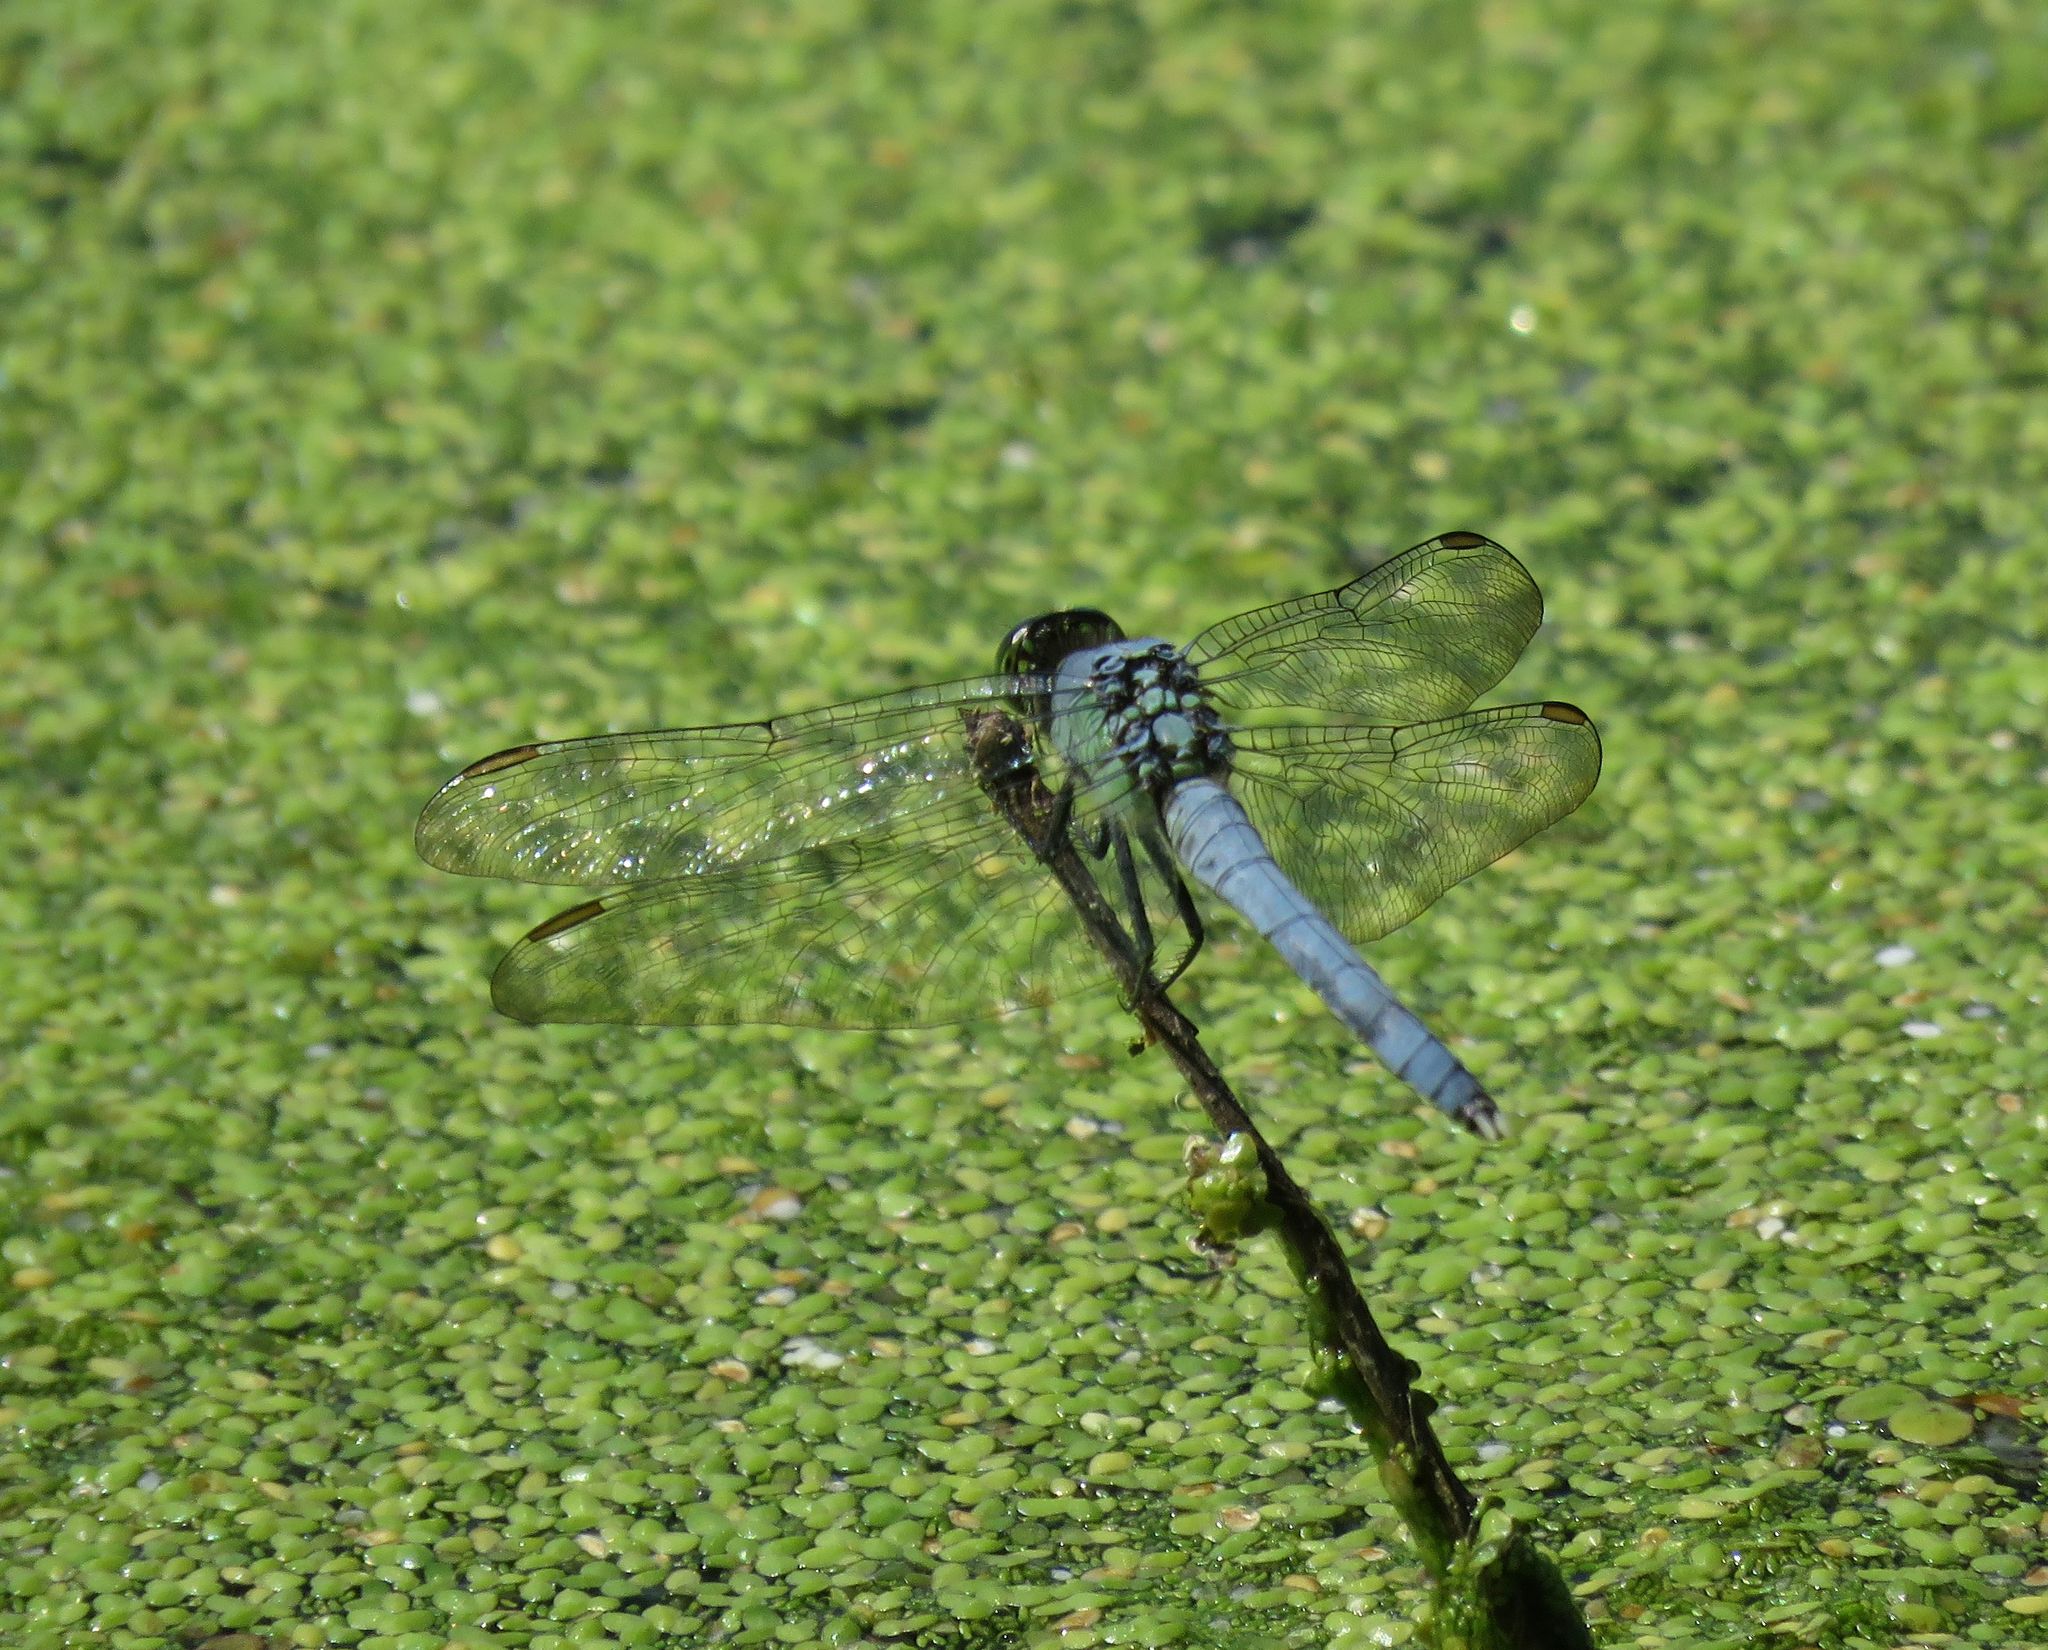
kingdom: Animalia
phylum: Arthropoda
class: Insecta
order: Odonata
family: Libellulidae
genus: Erythemis
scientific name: Erythemis simplicicollis
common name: Eastern pondhawk
